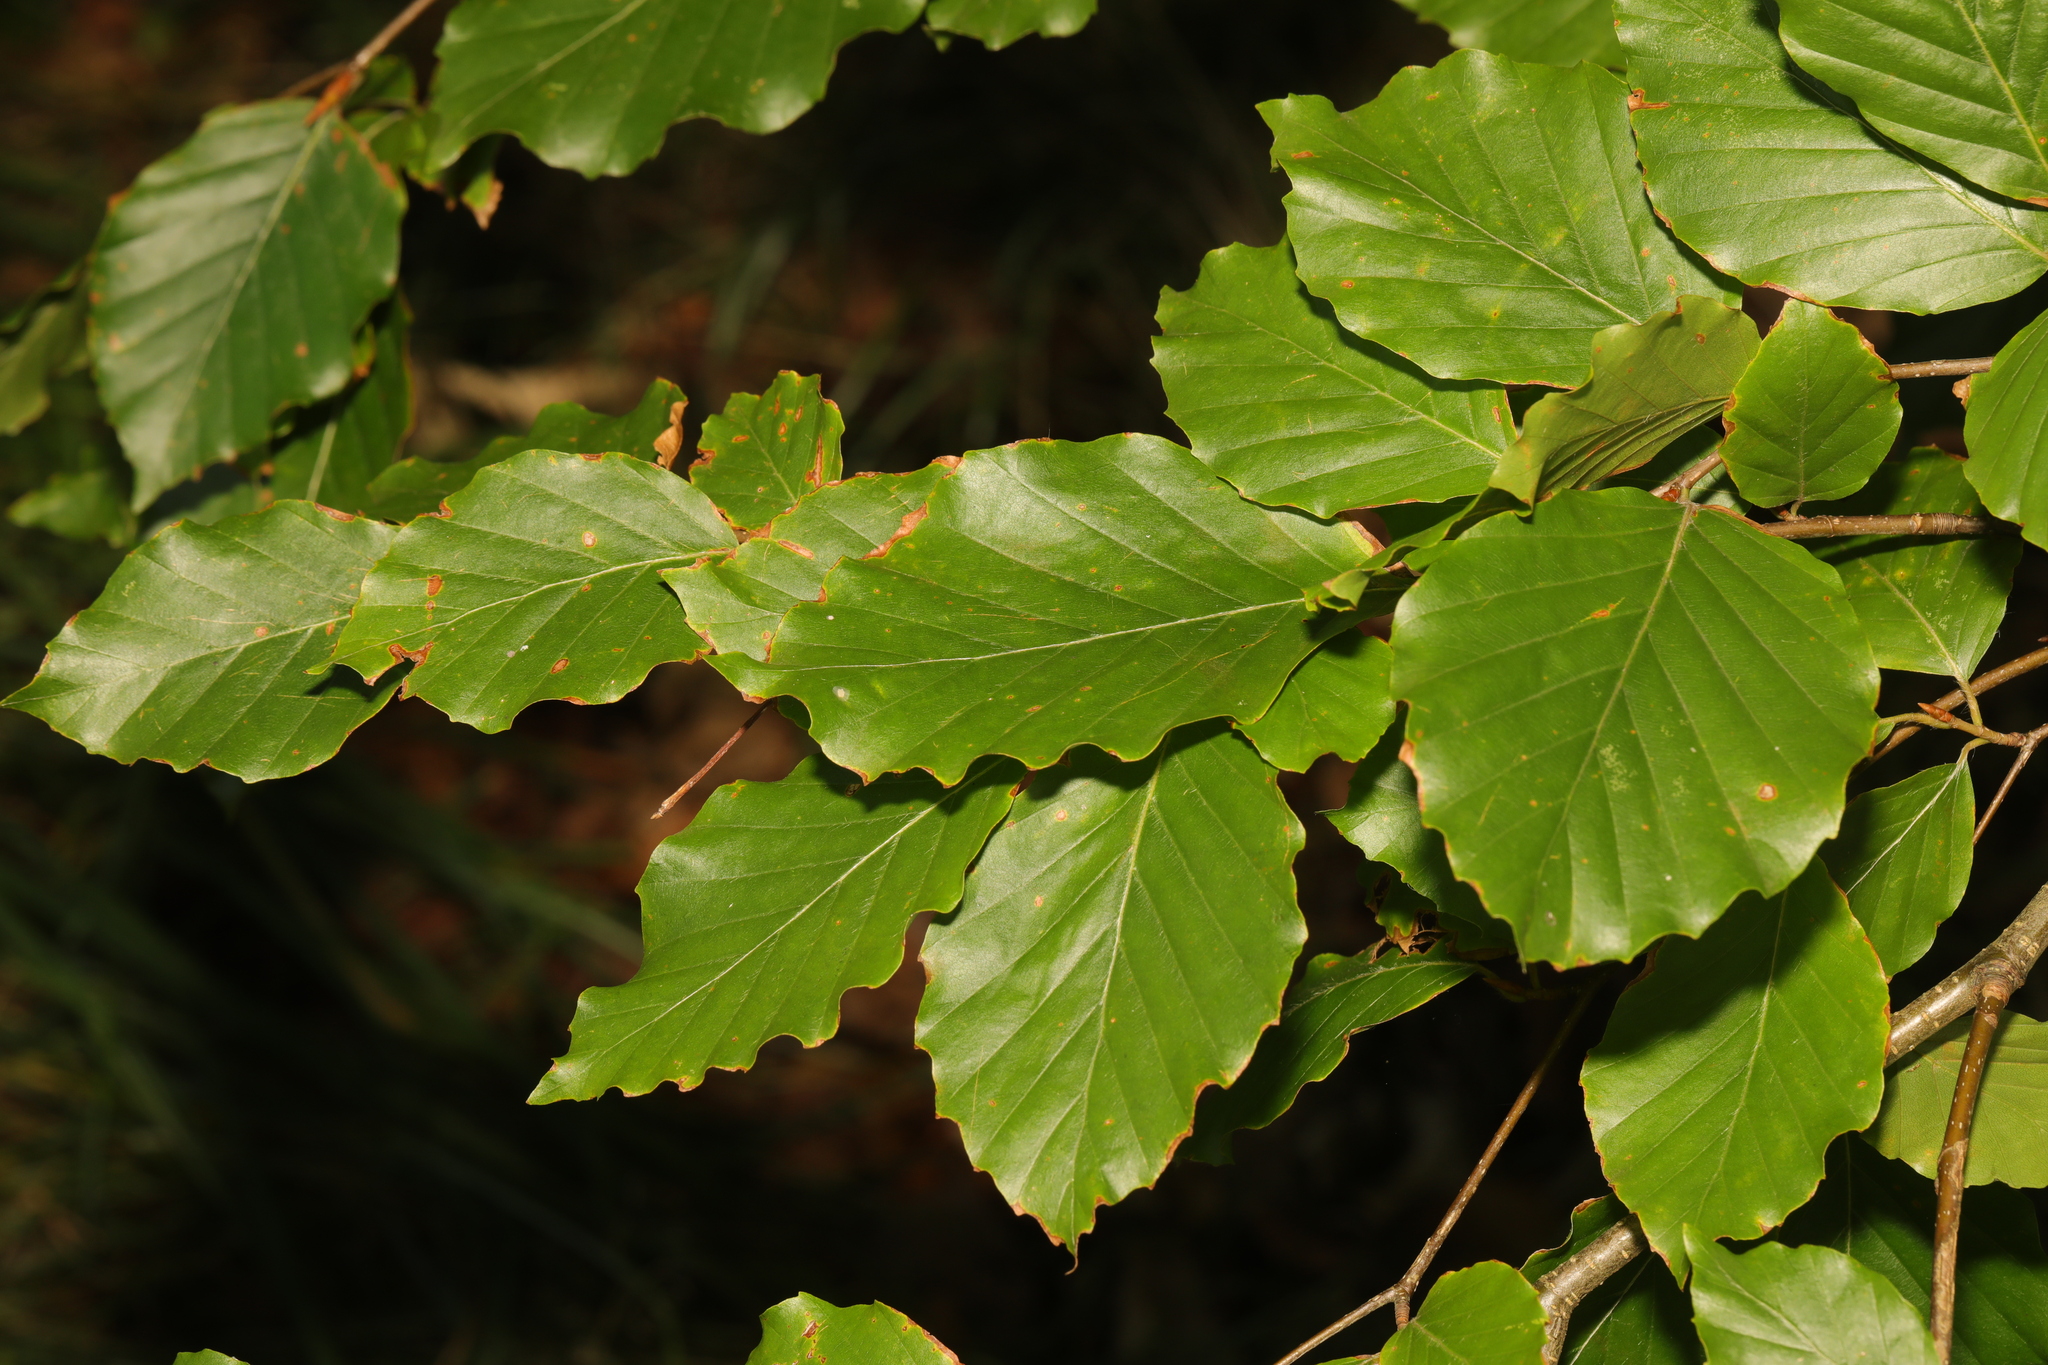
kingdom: Plantae
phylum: Tracheophyta
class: Magnoliopsida
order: Fagales
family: Fagaceae
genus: Fagus
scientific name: Fagus sylvatica
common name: Beech
